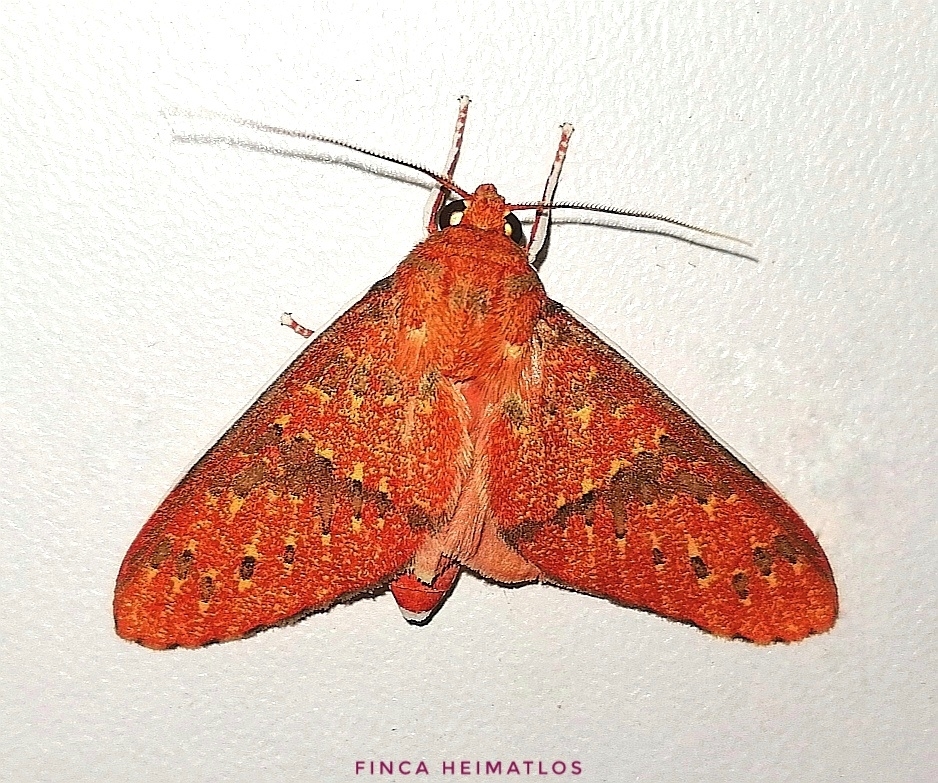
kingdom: Animalia
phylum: Arthropoda
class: Insecta
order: Lepidoptera
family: Erebidae
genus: Araeomolis
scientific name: Araeomolis nigripuncta
